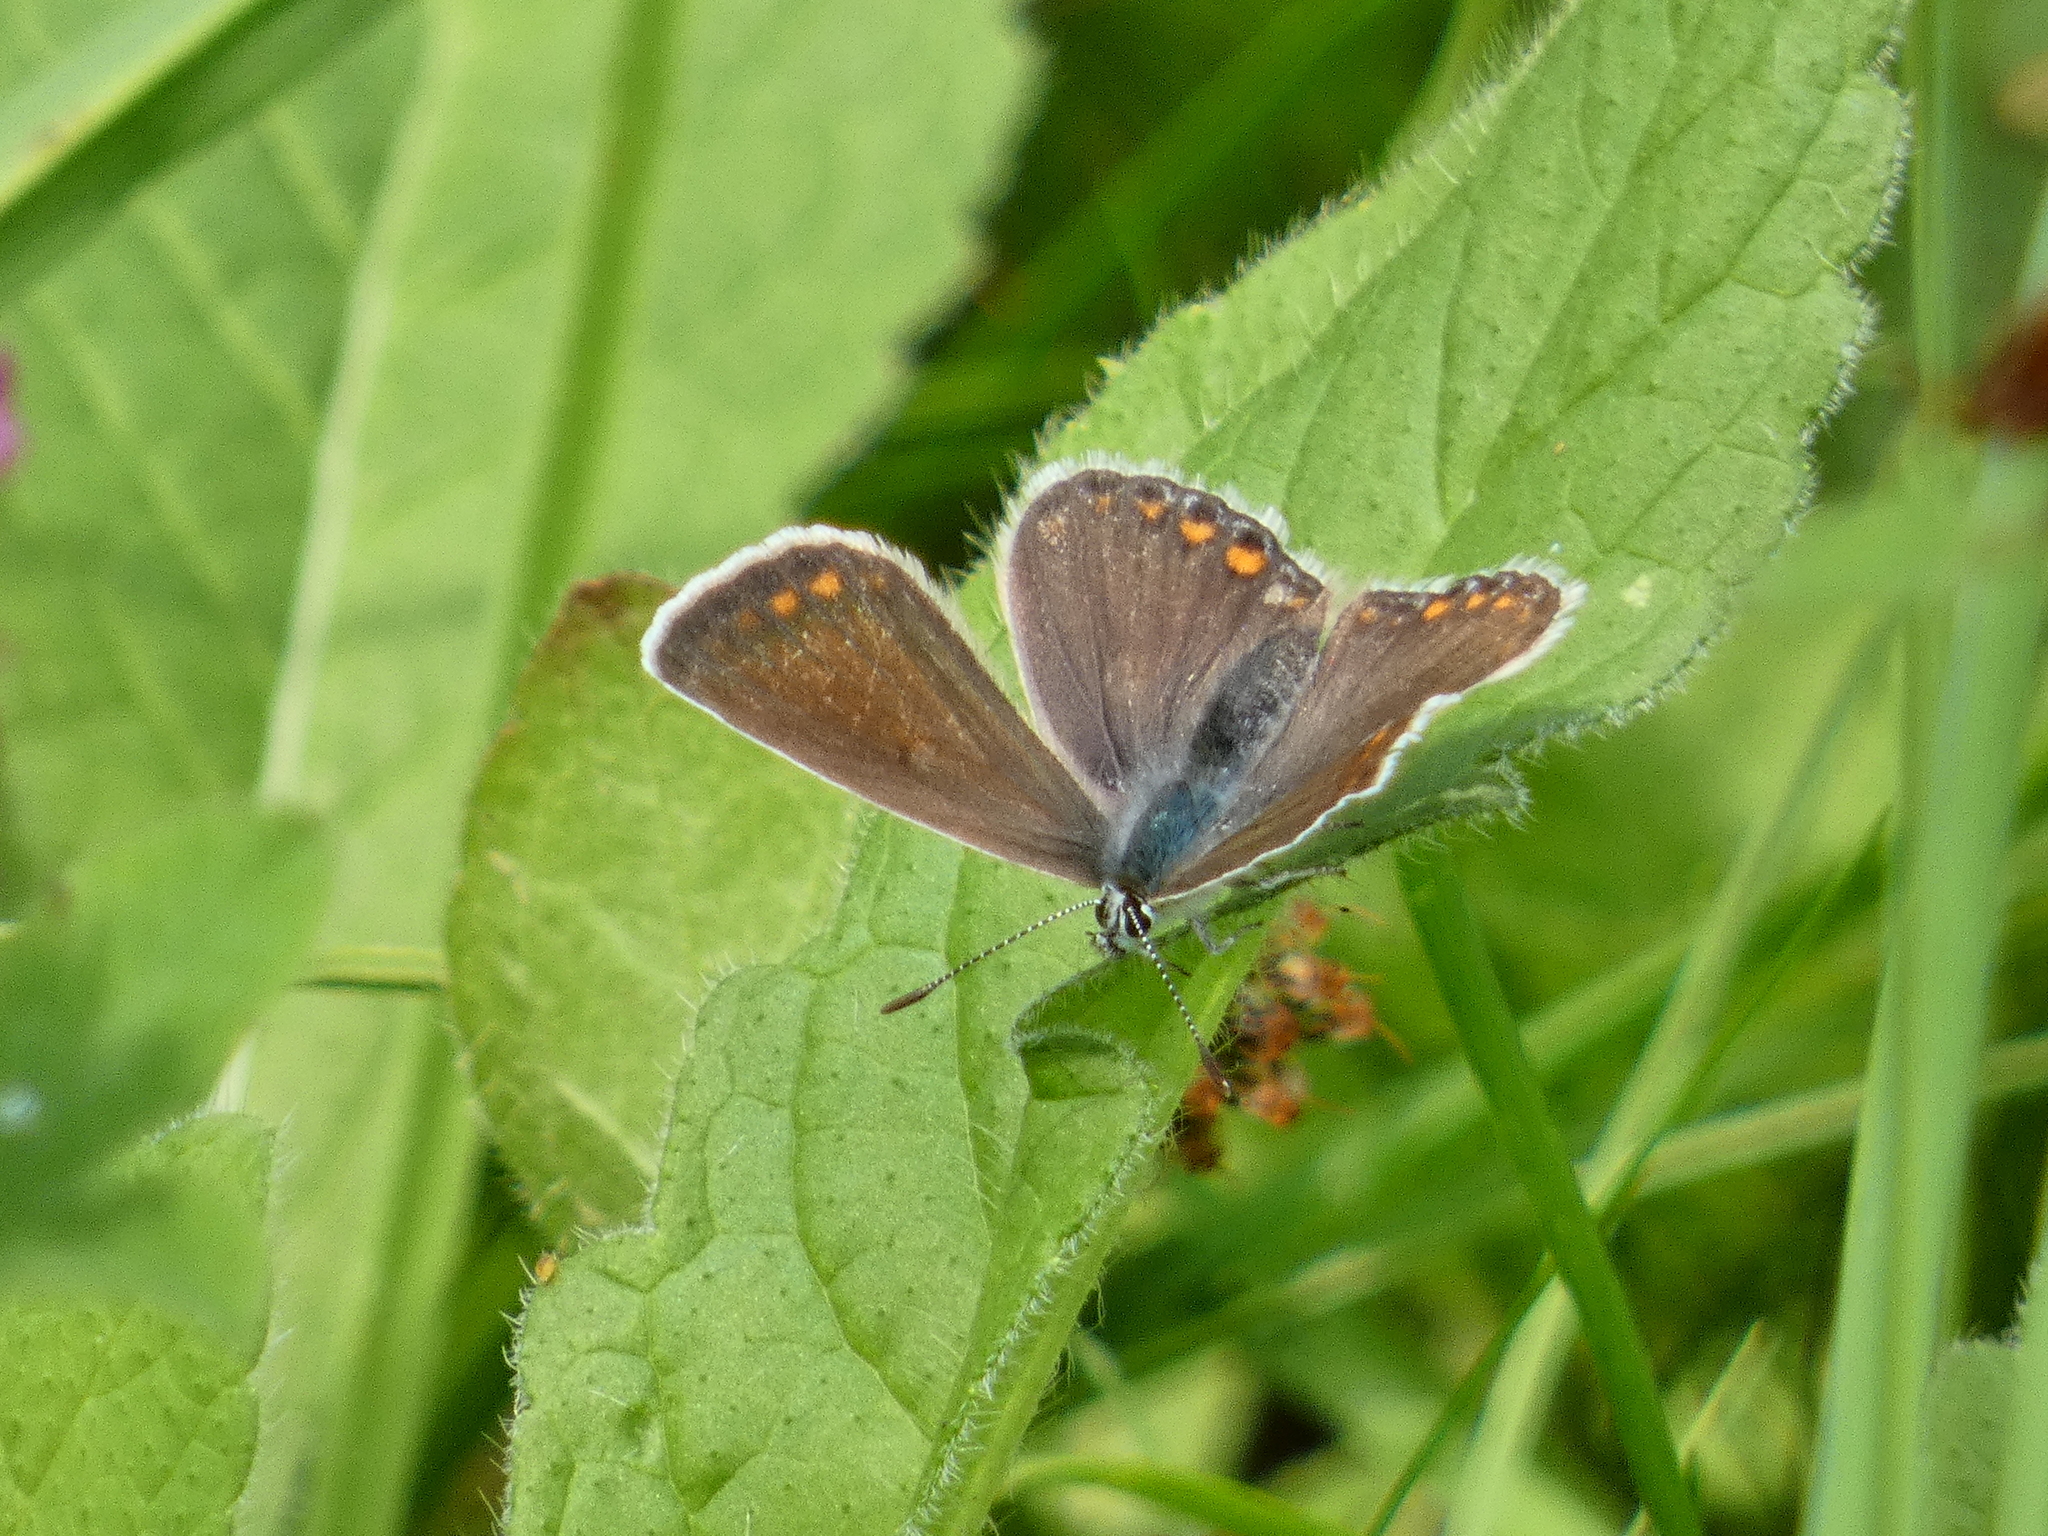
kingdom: Animalia
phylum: Arthropoda
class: Insecta
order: Lepidoptera
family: Lycaenidae
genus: Polyommatus
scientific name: Polyommatus icarus
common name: Common blue
